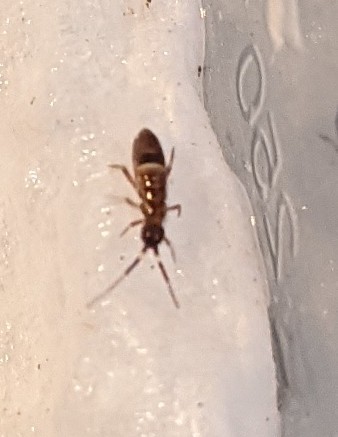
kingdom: Animalia
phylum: Arthropoda
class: Collembola
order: Entomobryomorpha
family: Orchesellidae
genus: Orchesella
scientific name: Orchesella cincta
